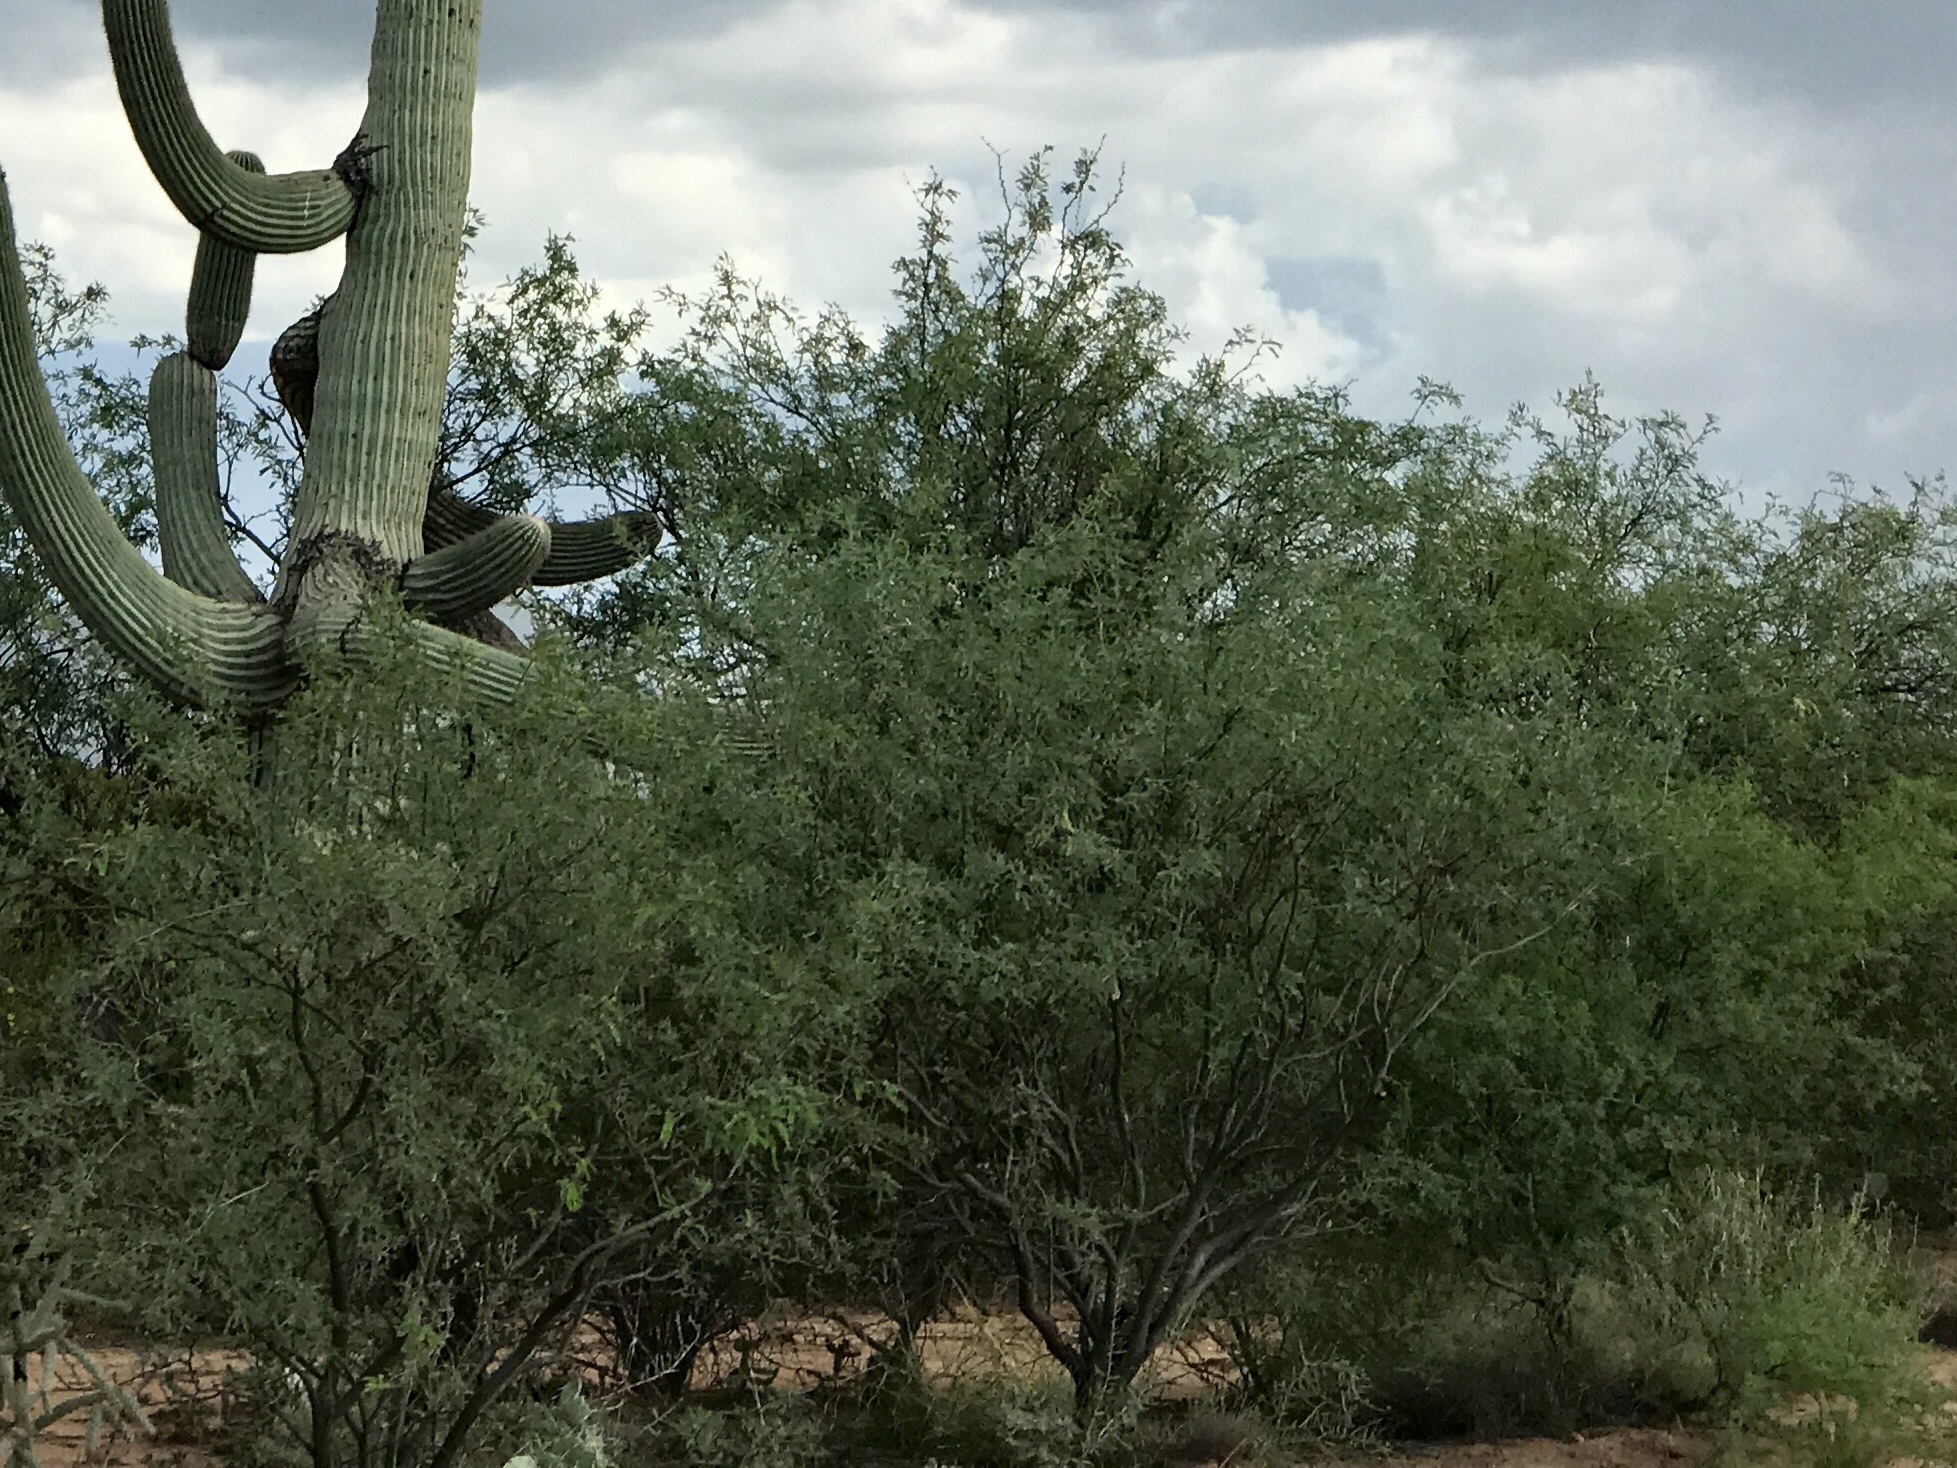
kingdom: Plantae
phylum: Tracheophyta
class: Magnoliopsida
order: Fabales
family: Fabaceae
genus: Prosopis
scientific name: Prosopis velutina
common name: Velvet mesquite
